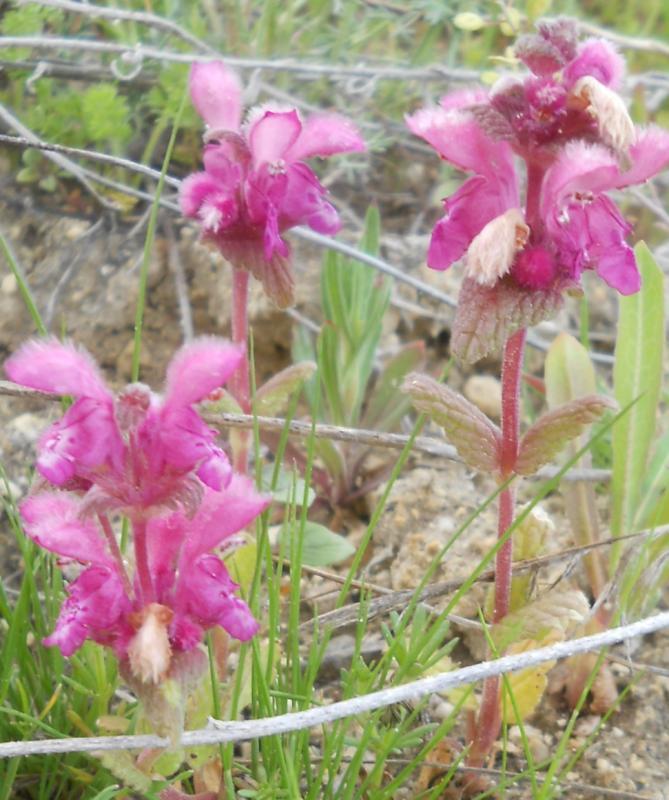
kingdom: Plantae
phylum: Tracheophyta
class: Magnoliopsida
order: Lamiales
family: Lamiaceae
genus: Lamium
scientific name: Lamium orientale
